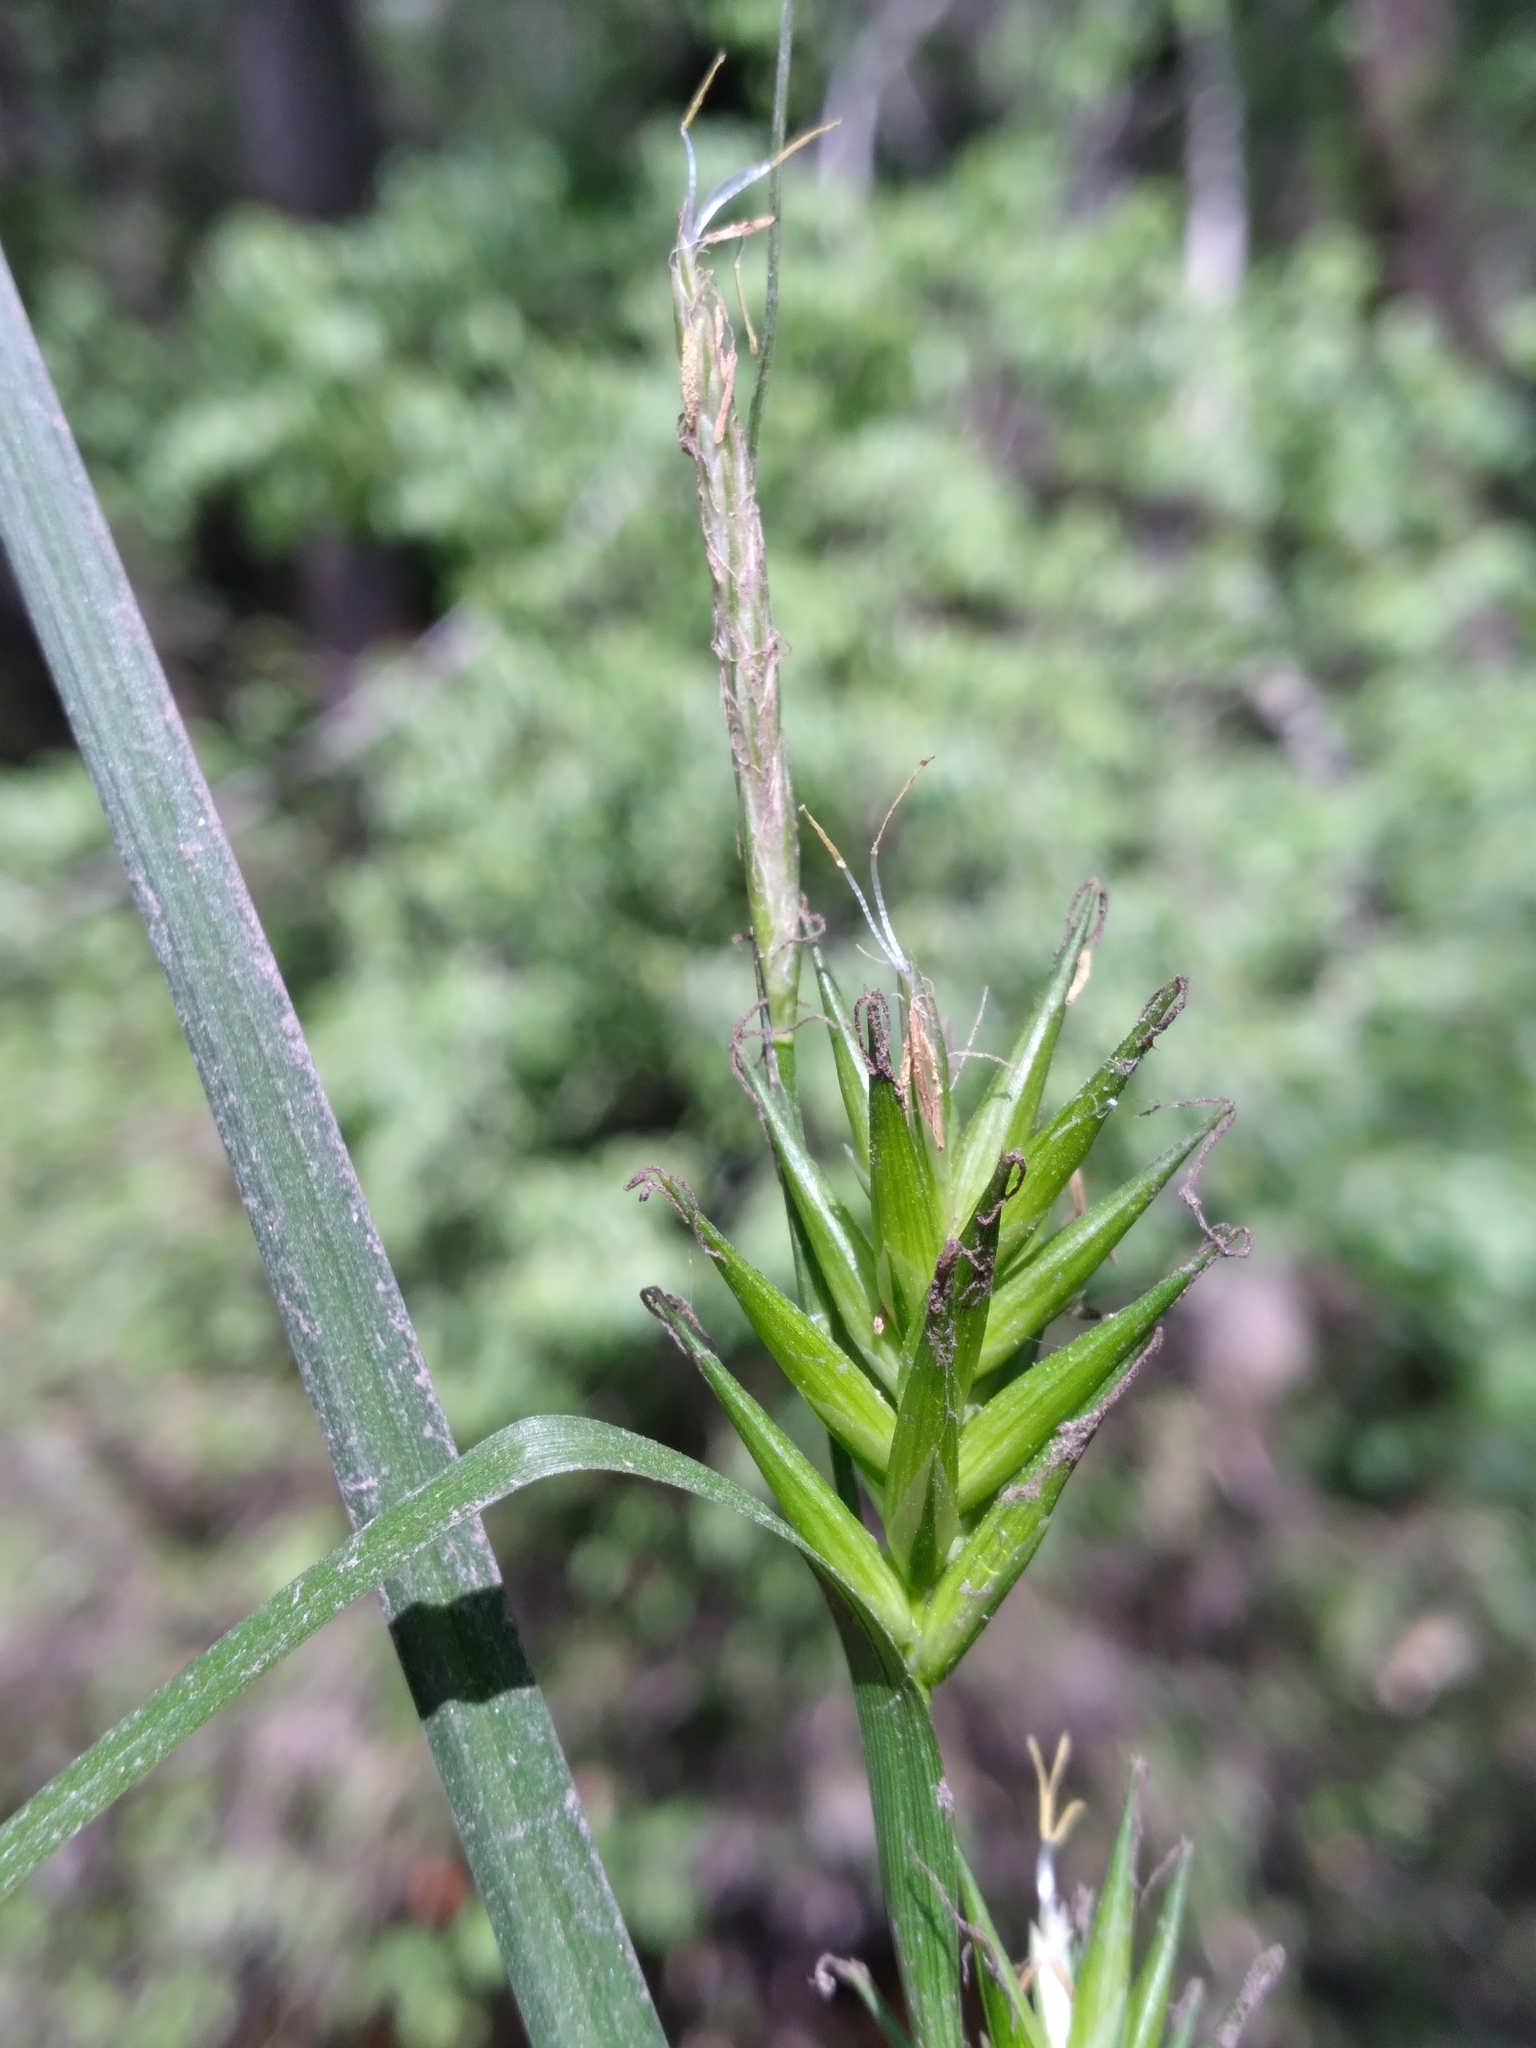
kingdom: Plantae
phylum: Tracheophyta
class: Liliopsida
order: Poales
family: Cyperaceae
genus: Carex
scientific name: Carex lonchocarpa
